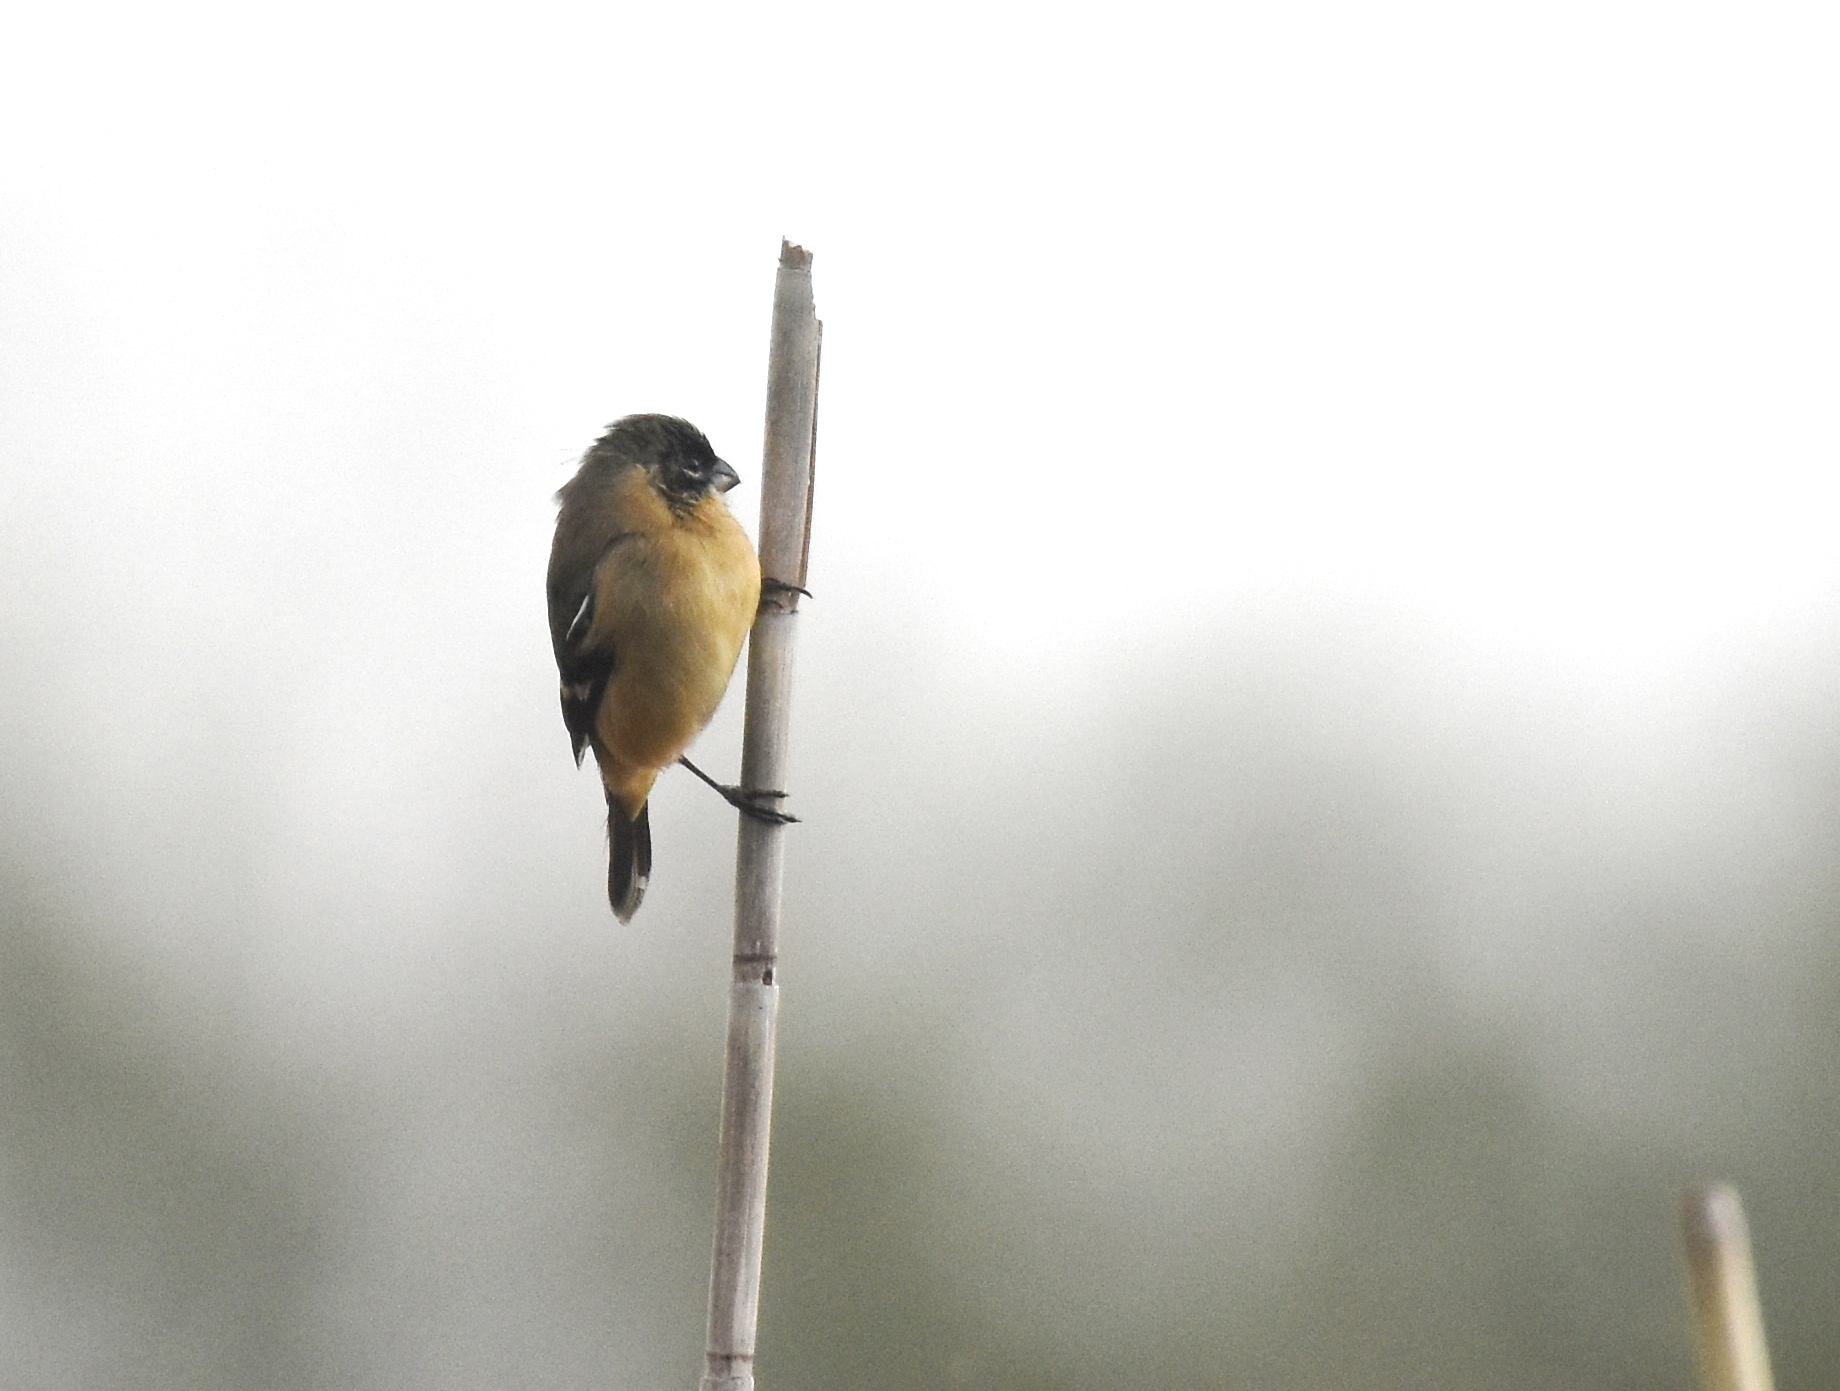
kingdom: Animalia
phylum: Chordata
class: Aves
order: Passeriformes
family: Thraupidae
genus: Sporophila
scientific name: Sporophila morelleti
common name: Morelet's seedeater
